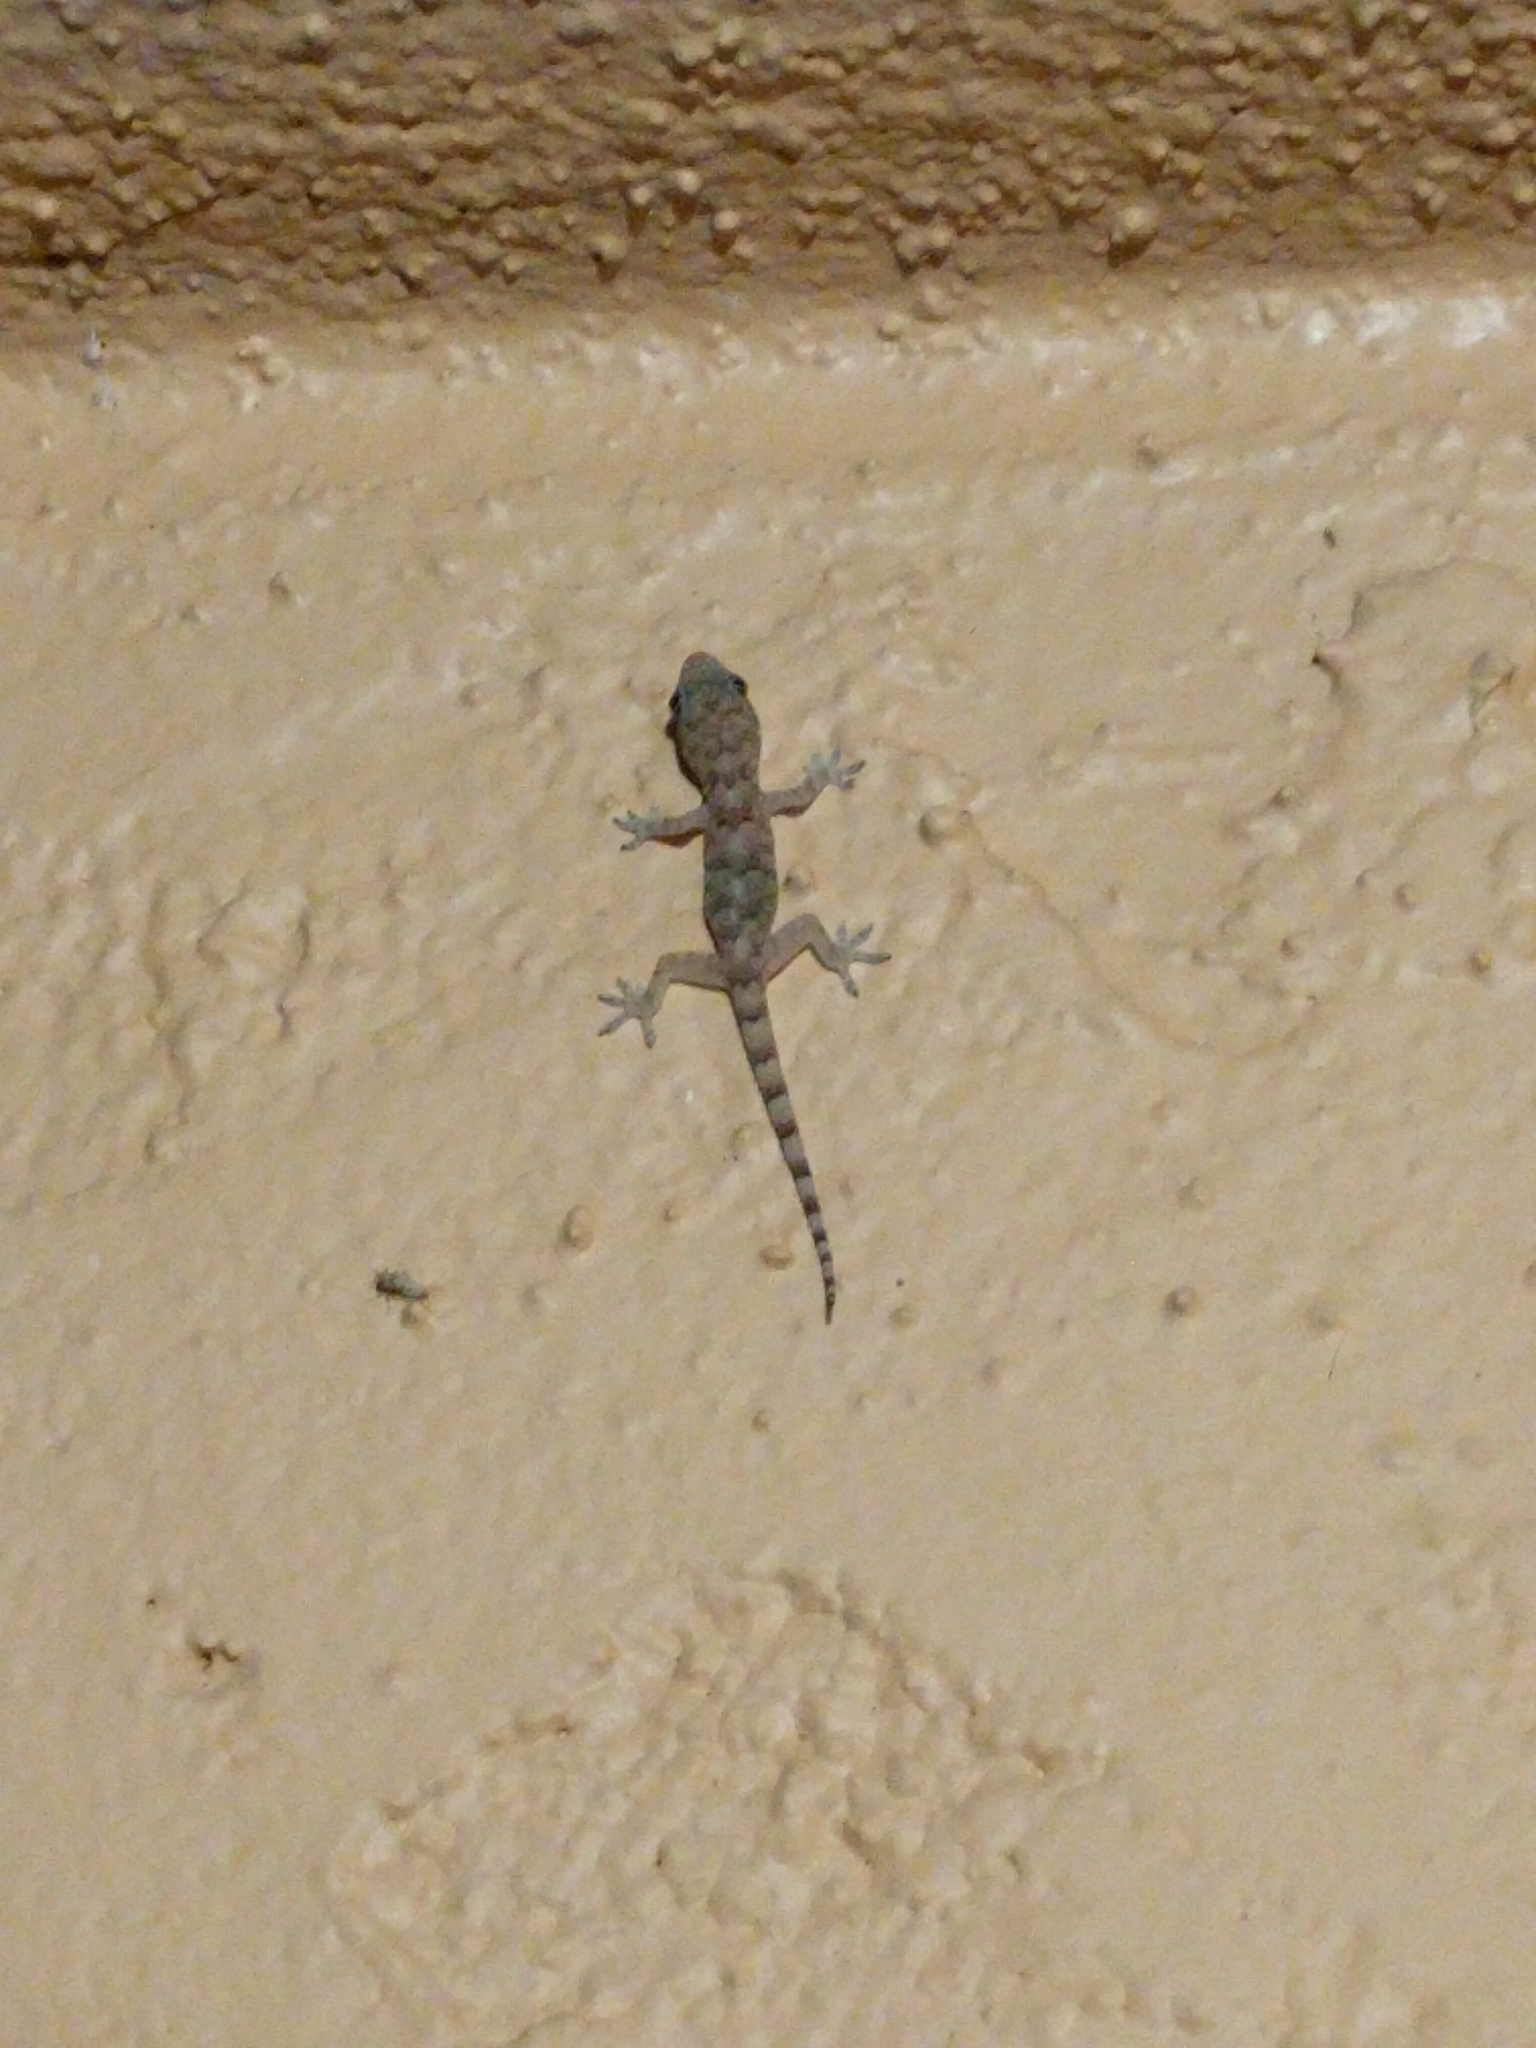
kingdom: Animalia
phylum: Chordata
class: Squamata
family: Gekkonidae
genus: Hemidactylus
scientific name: Hemidactylus mabouia
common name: House gecko
